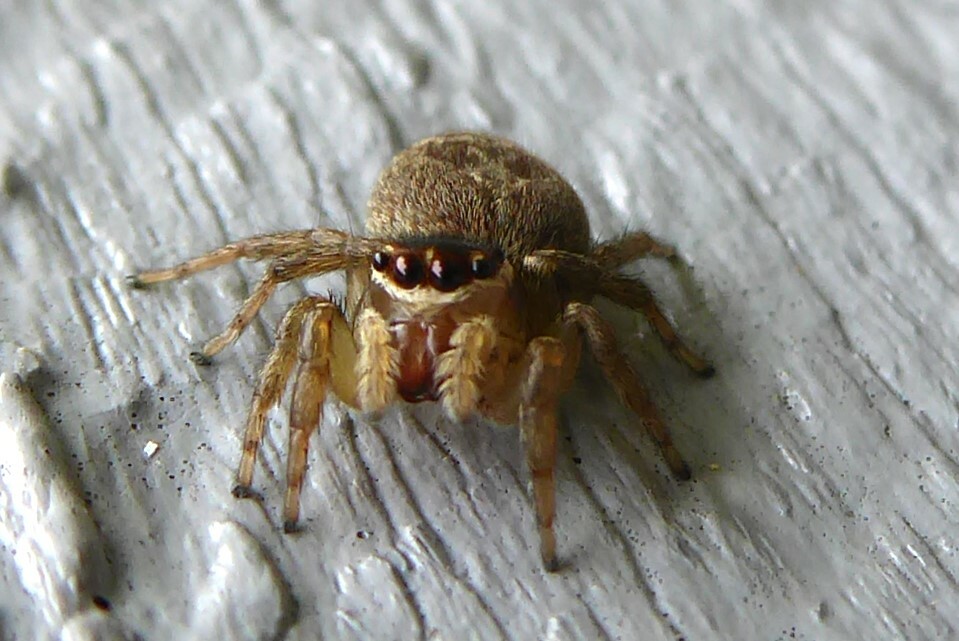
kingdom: Animalia
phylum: Arthropoda
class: Arachnida
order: Araneae
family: Salticidae
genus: Maratus
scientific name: Maratus griseus
